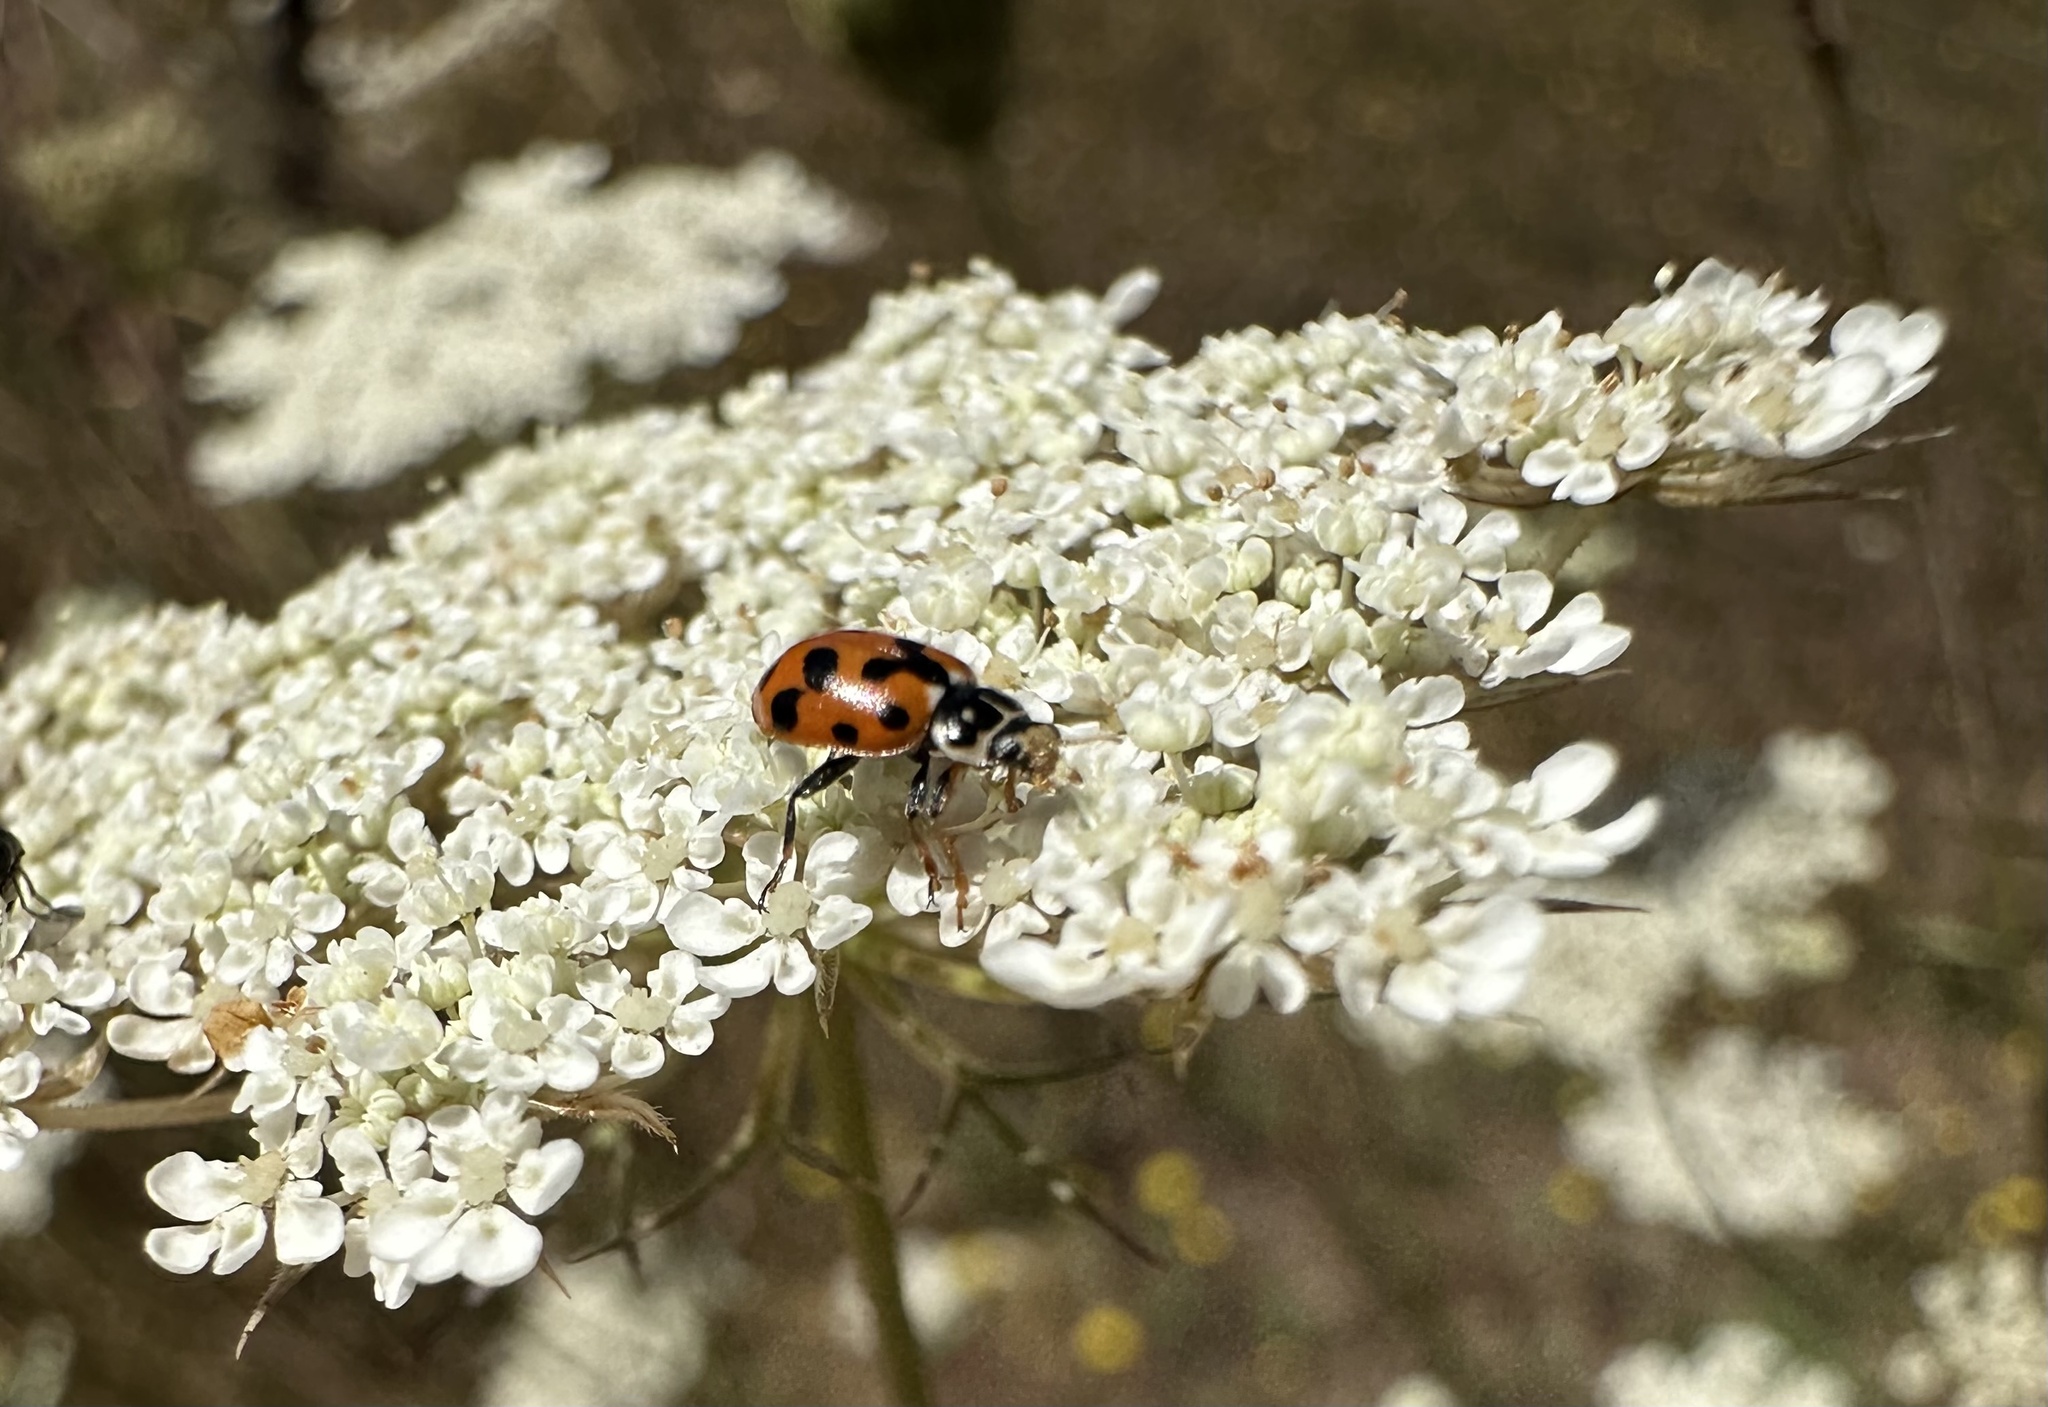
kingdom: Animalia
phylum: Arthropoda
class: Insecta
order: Coleoptera
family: Coccinellidae
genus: Hippodamia
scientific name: Hippodamia variegata
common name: Ladybird beetle
